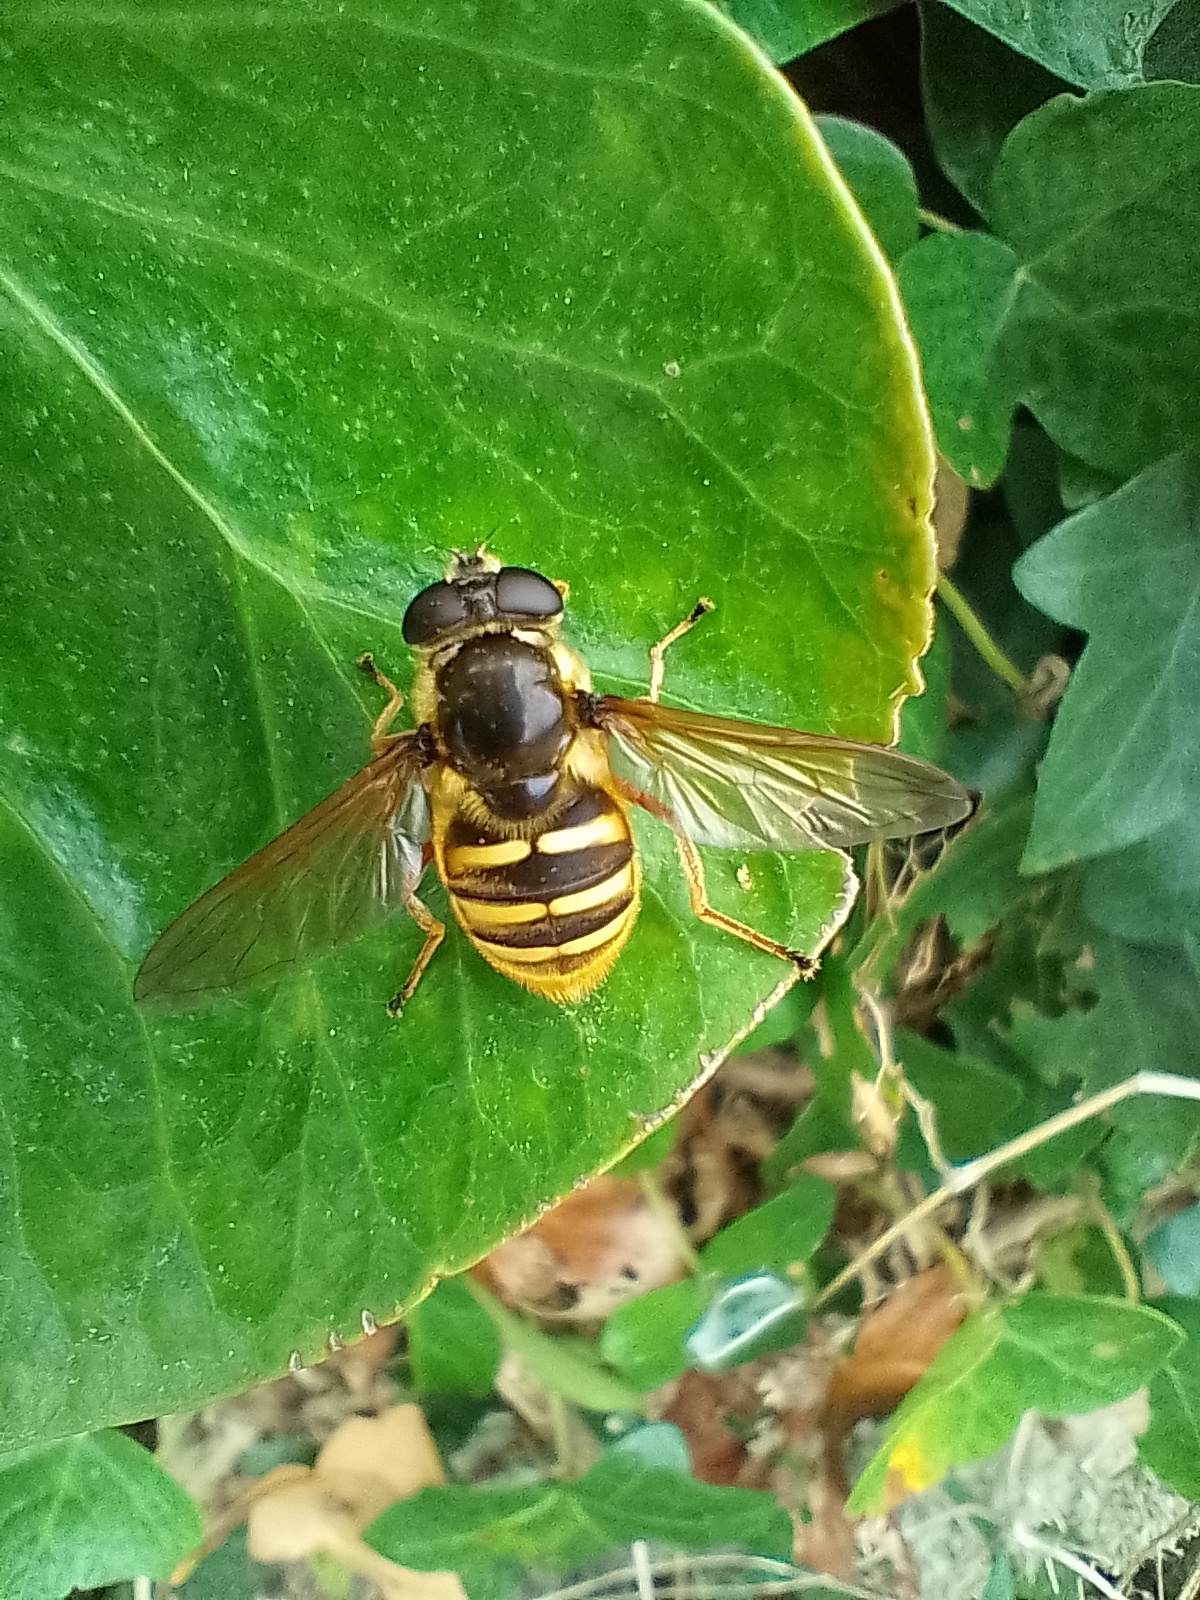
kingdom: Animalia
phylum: Arthropoda
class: Insecta
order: Diptera
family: Syrphidae
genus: Sericomyia
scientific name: Sericomyia silentis
